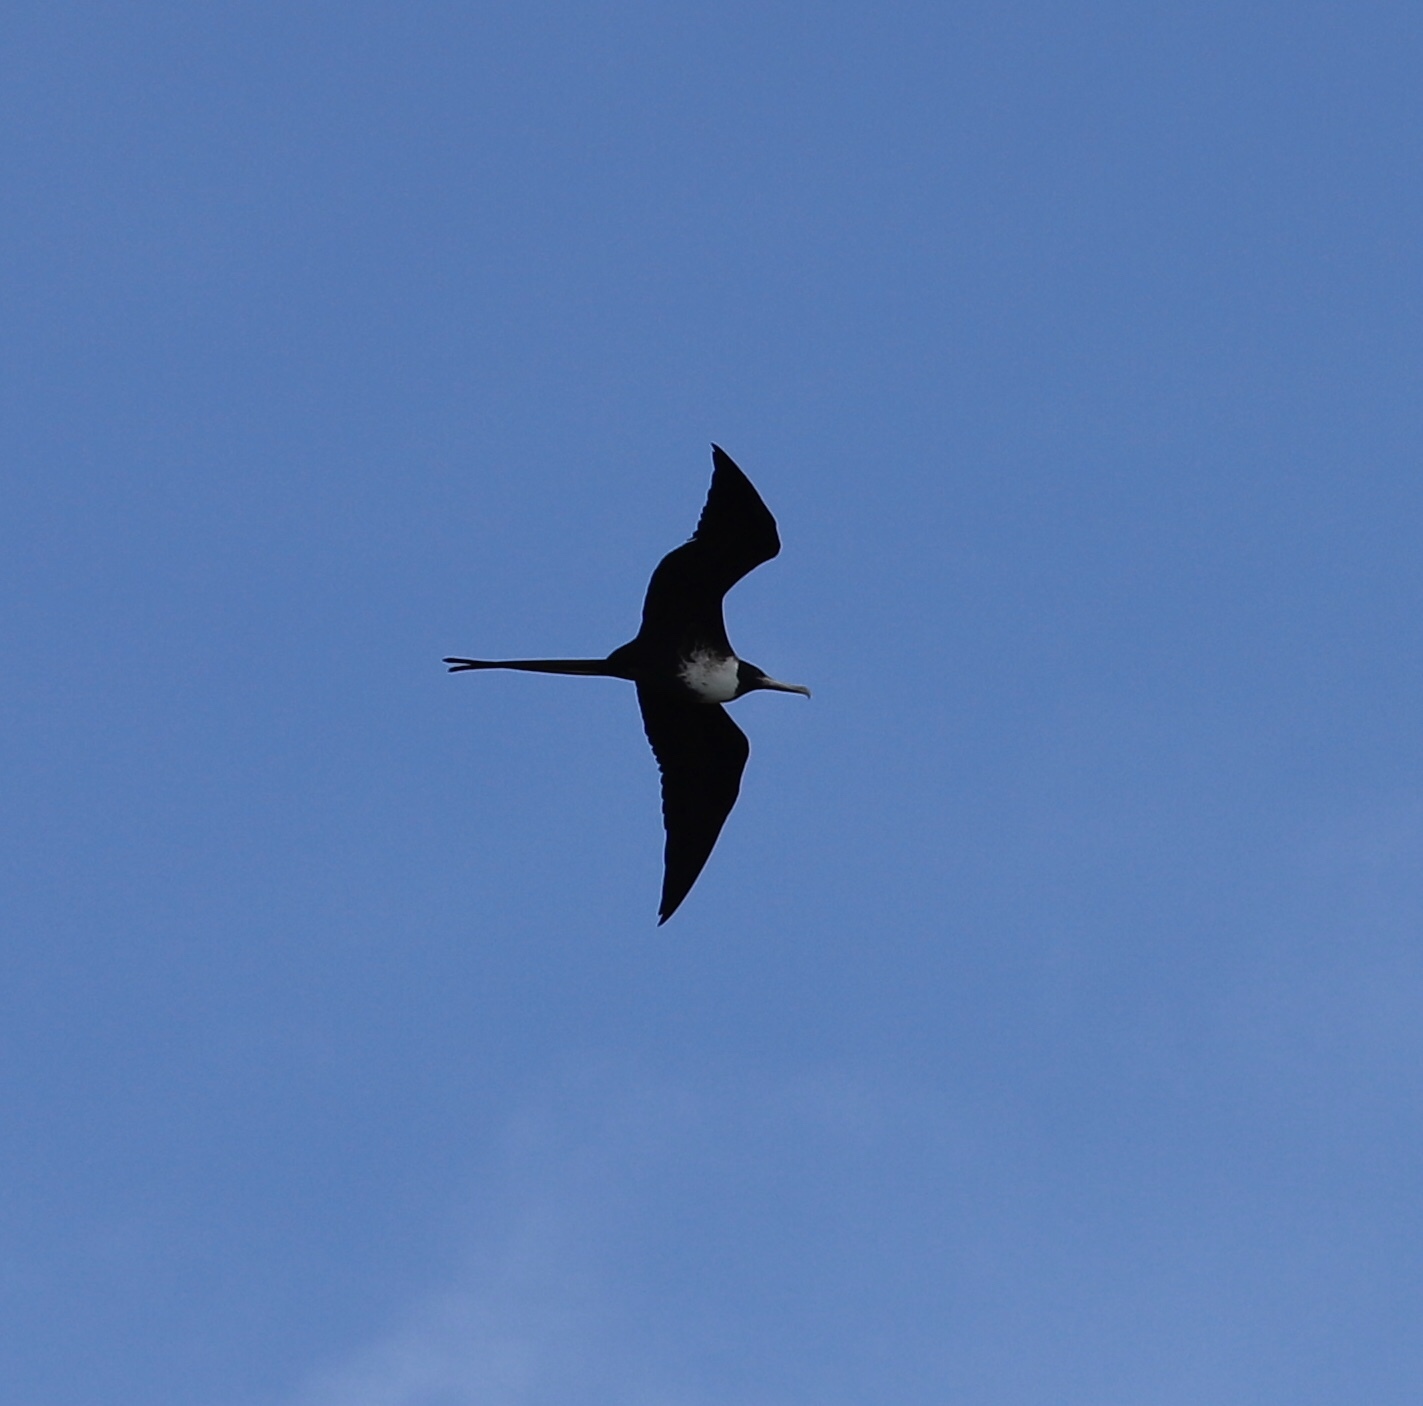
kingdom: Animalia
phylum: Chordata
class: Aves
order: Suliformes
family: Fregatidae
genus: Fregata
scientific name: Fregata magnificens
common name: Magnificent frigatebird
